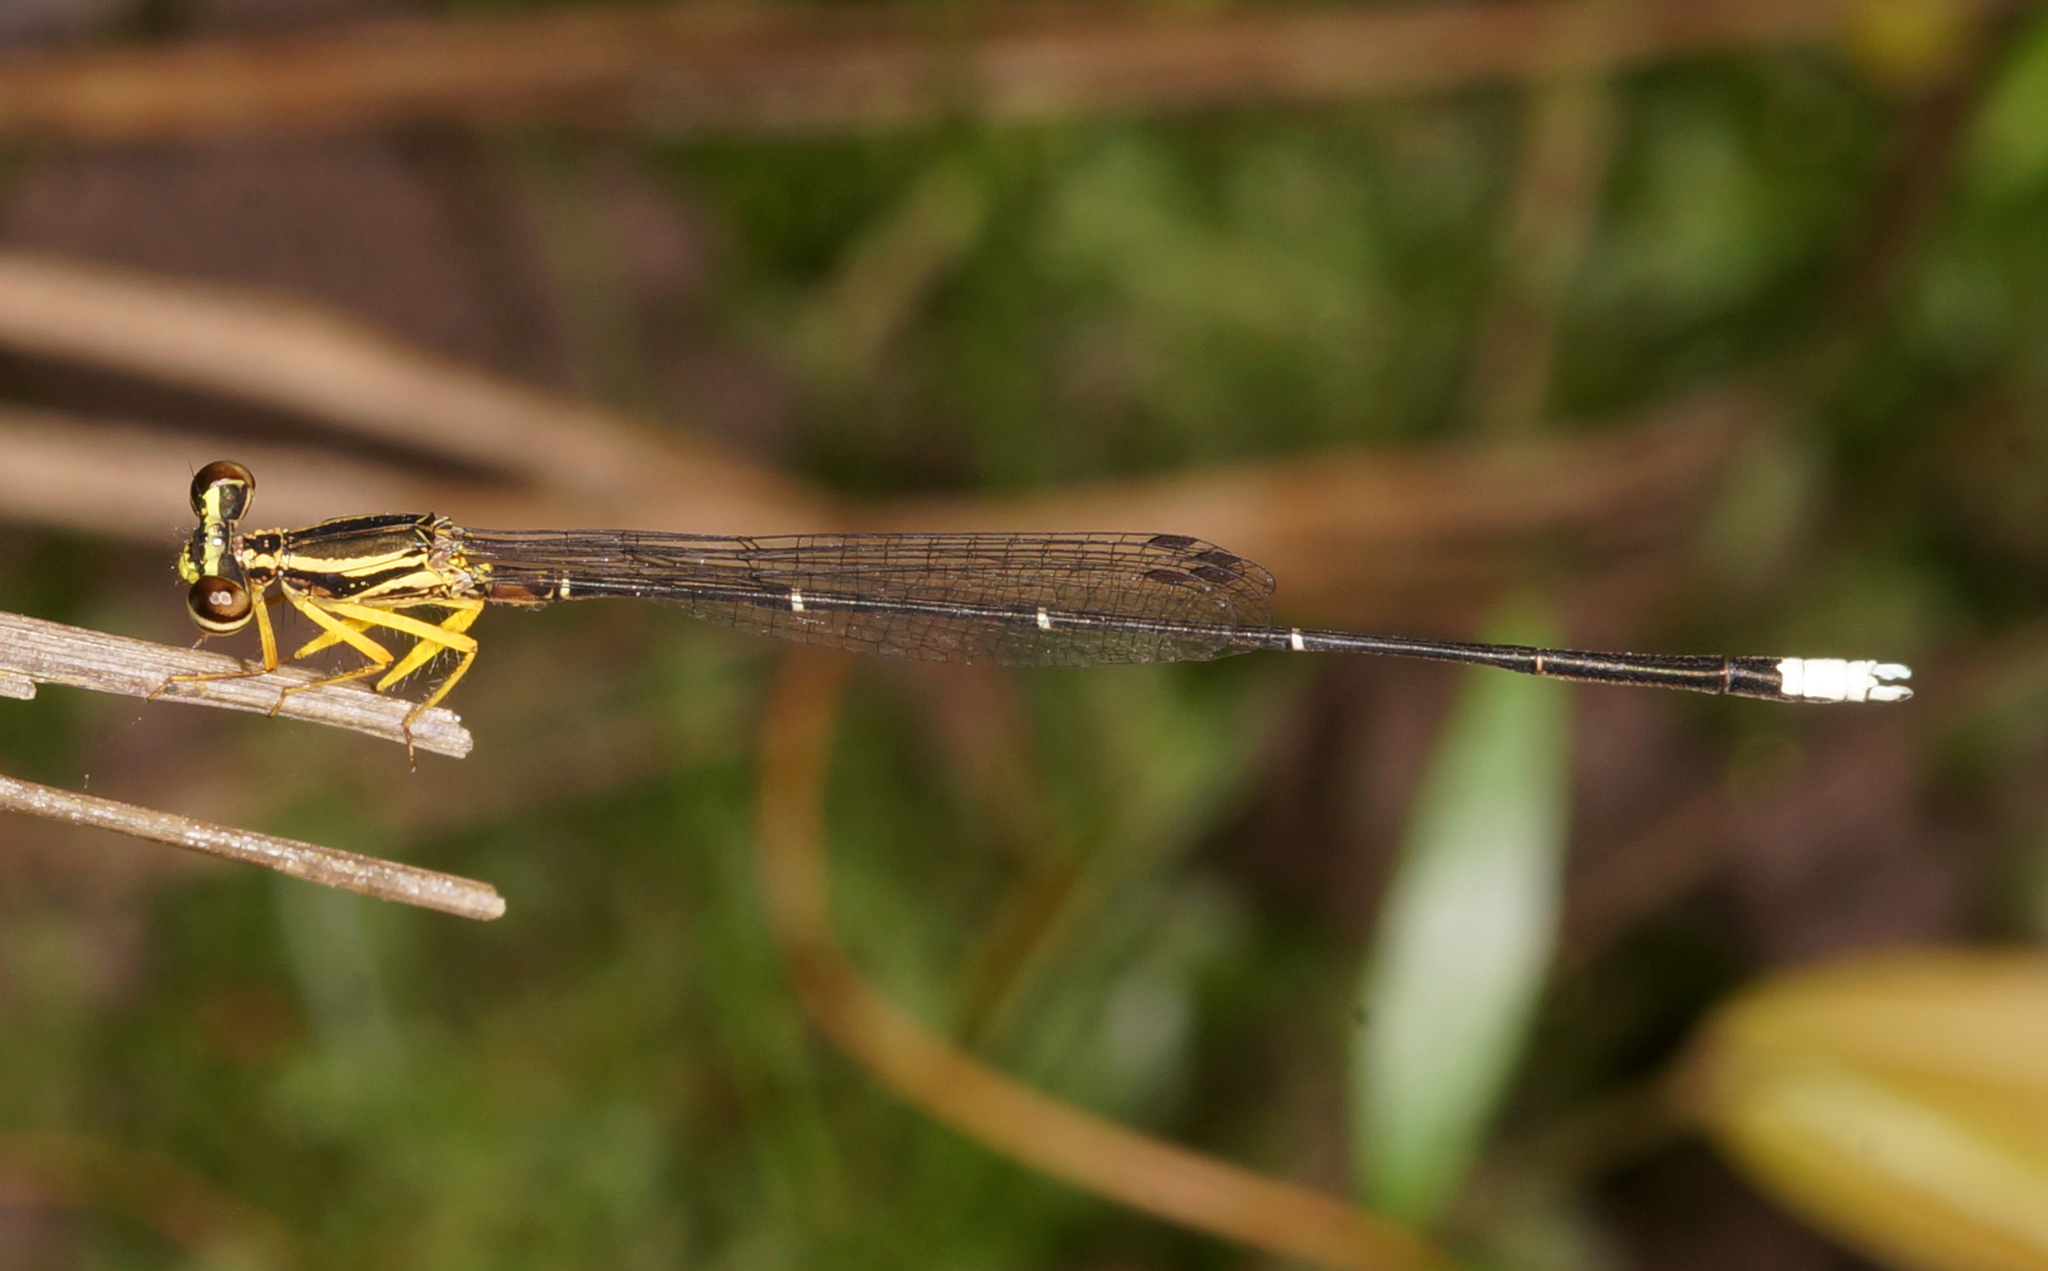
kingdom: Animalia
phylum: Arthropoda
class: Insecta
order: Odonata
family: Platycnemididae
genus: Copera
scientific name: Copera marginipes
